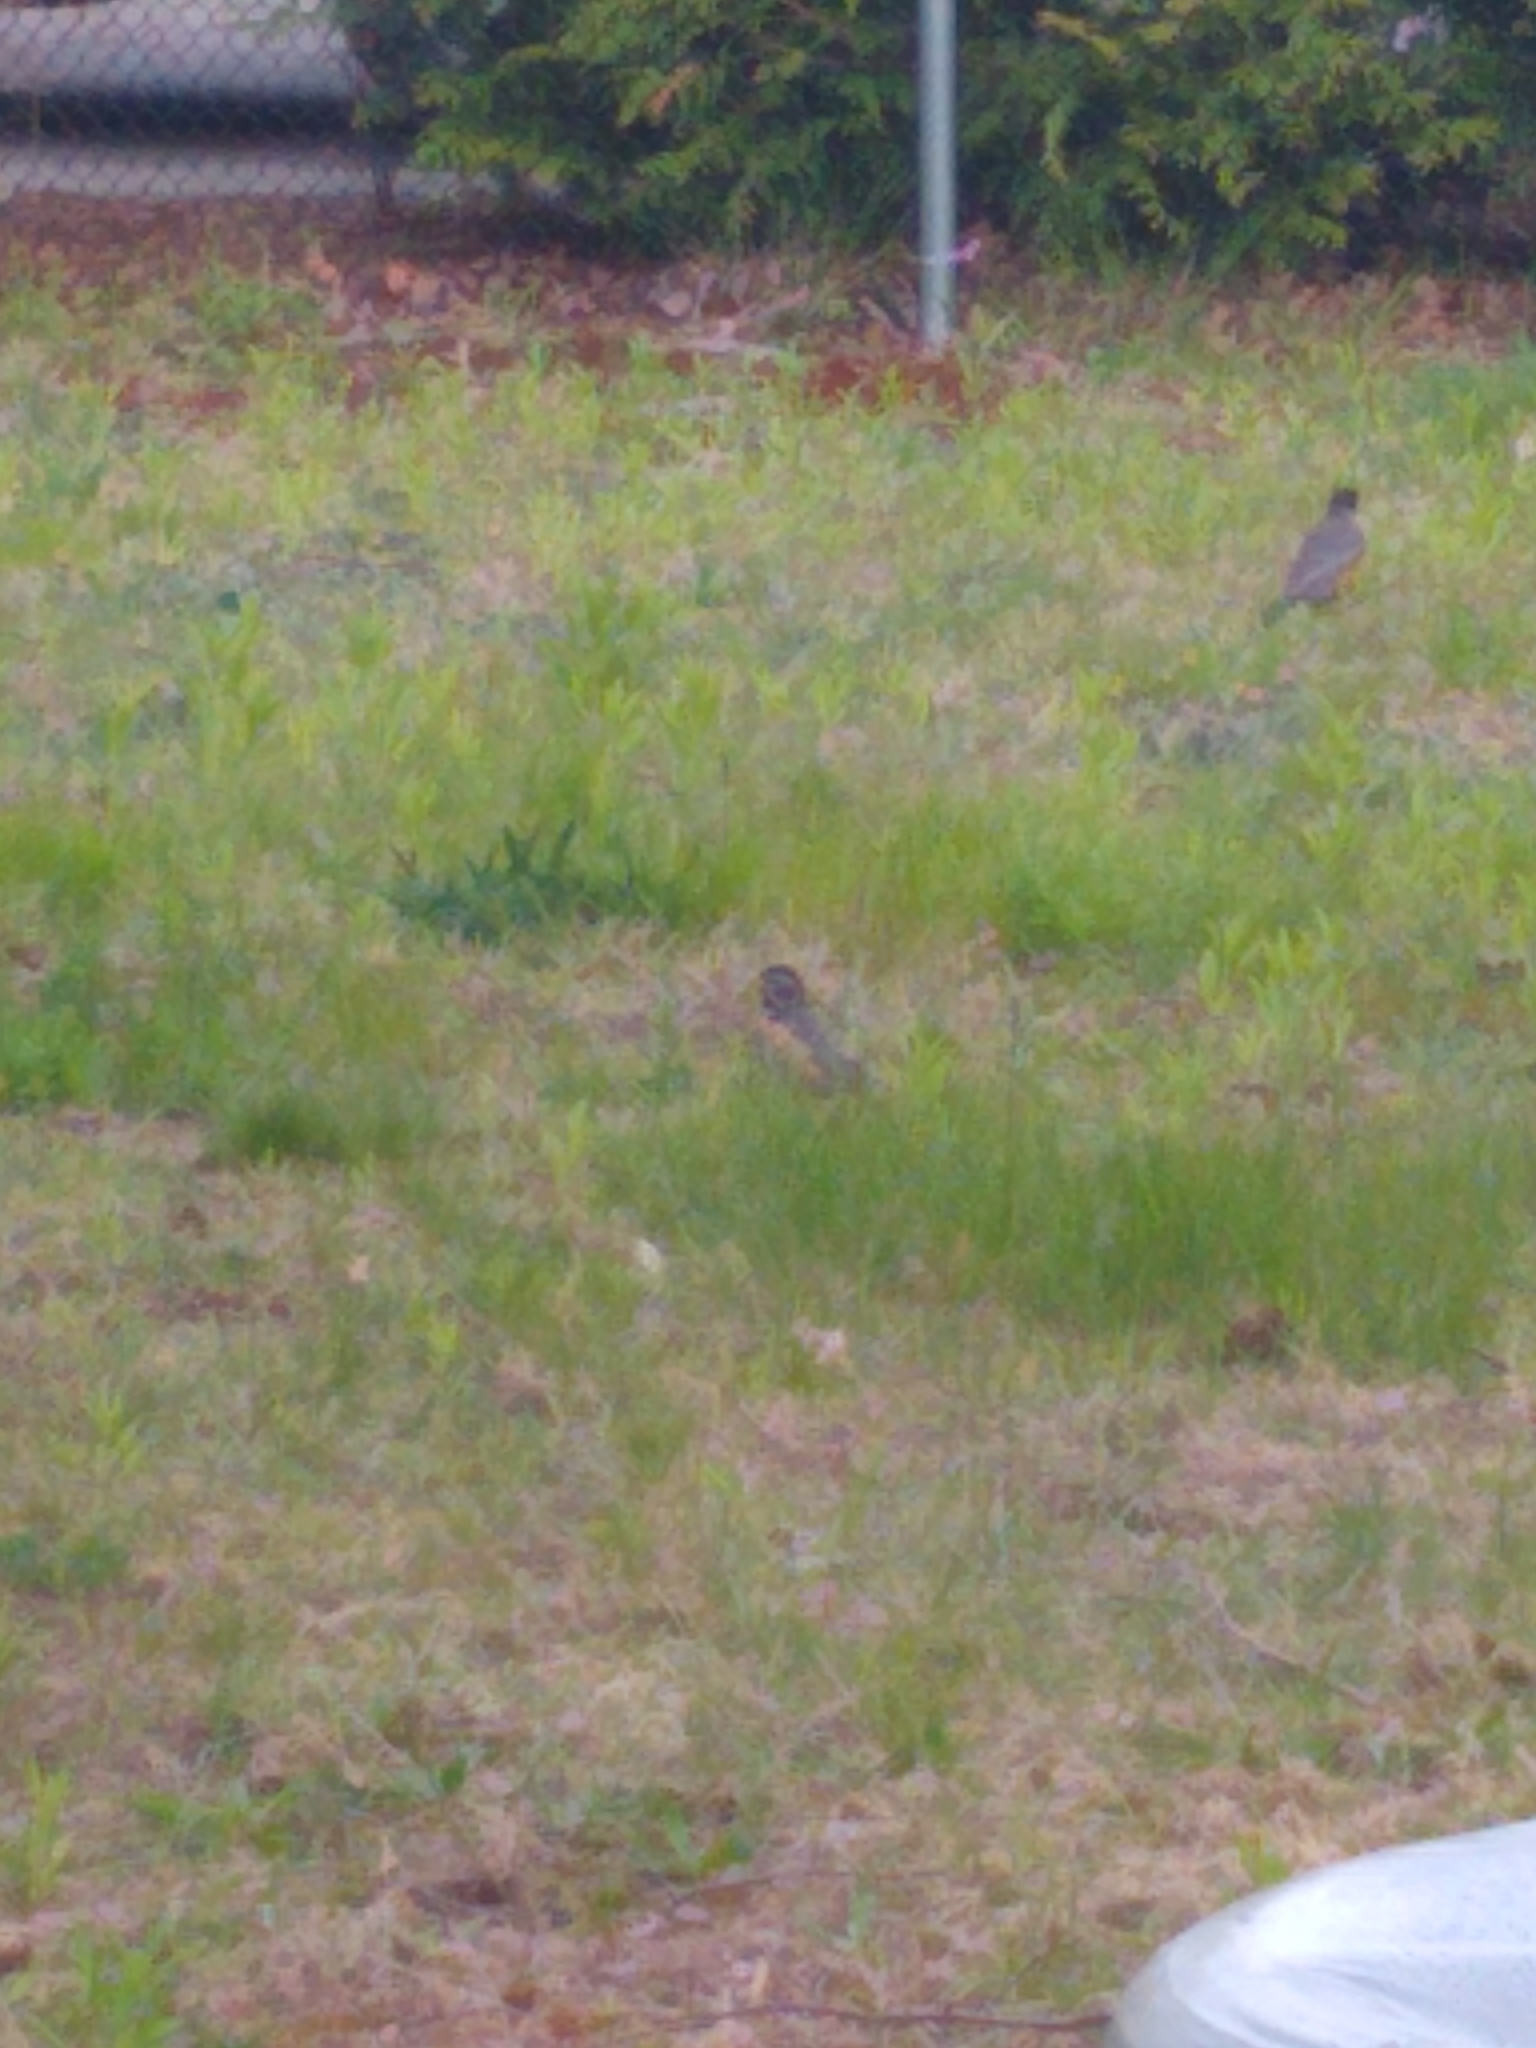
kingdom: Animalia
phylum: Chordata
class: Aves
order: Passeriformes
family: Turdidae
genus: Turdus
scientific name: Turdus migratorius
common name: American robin
